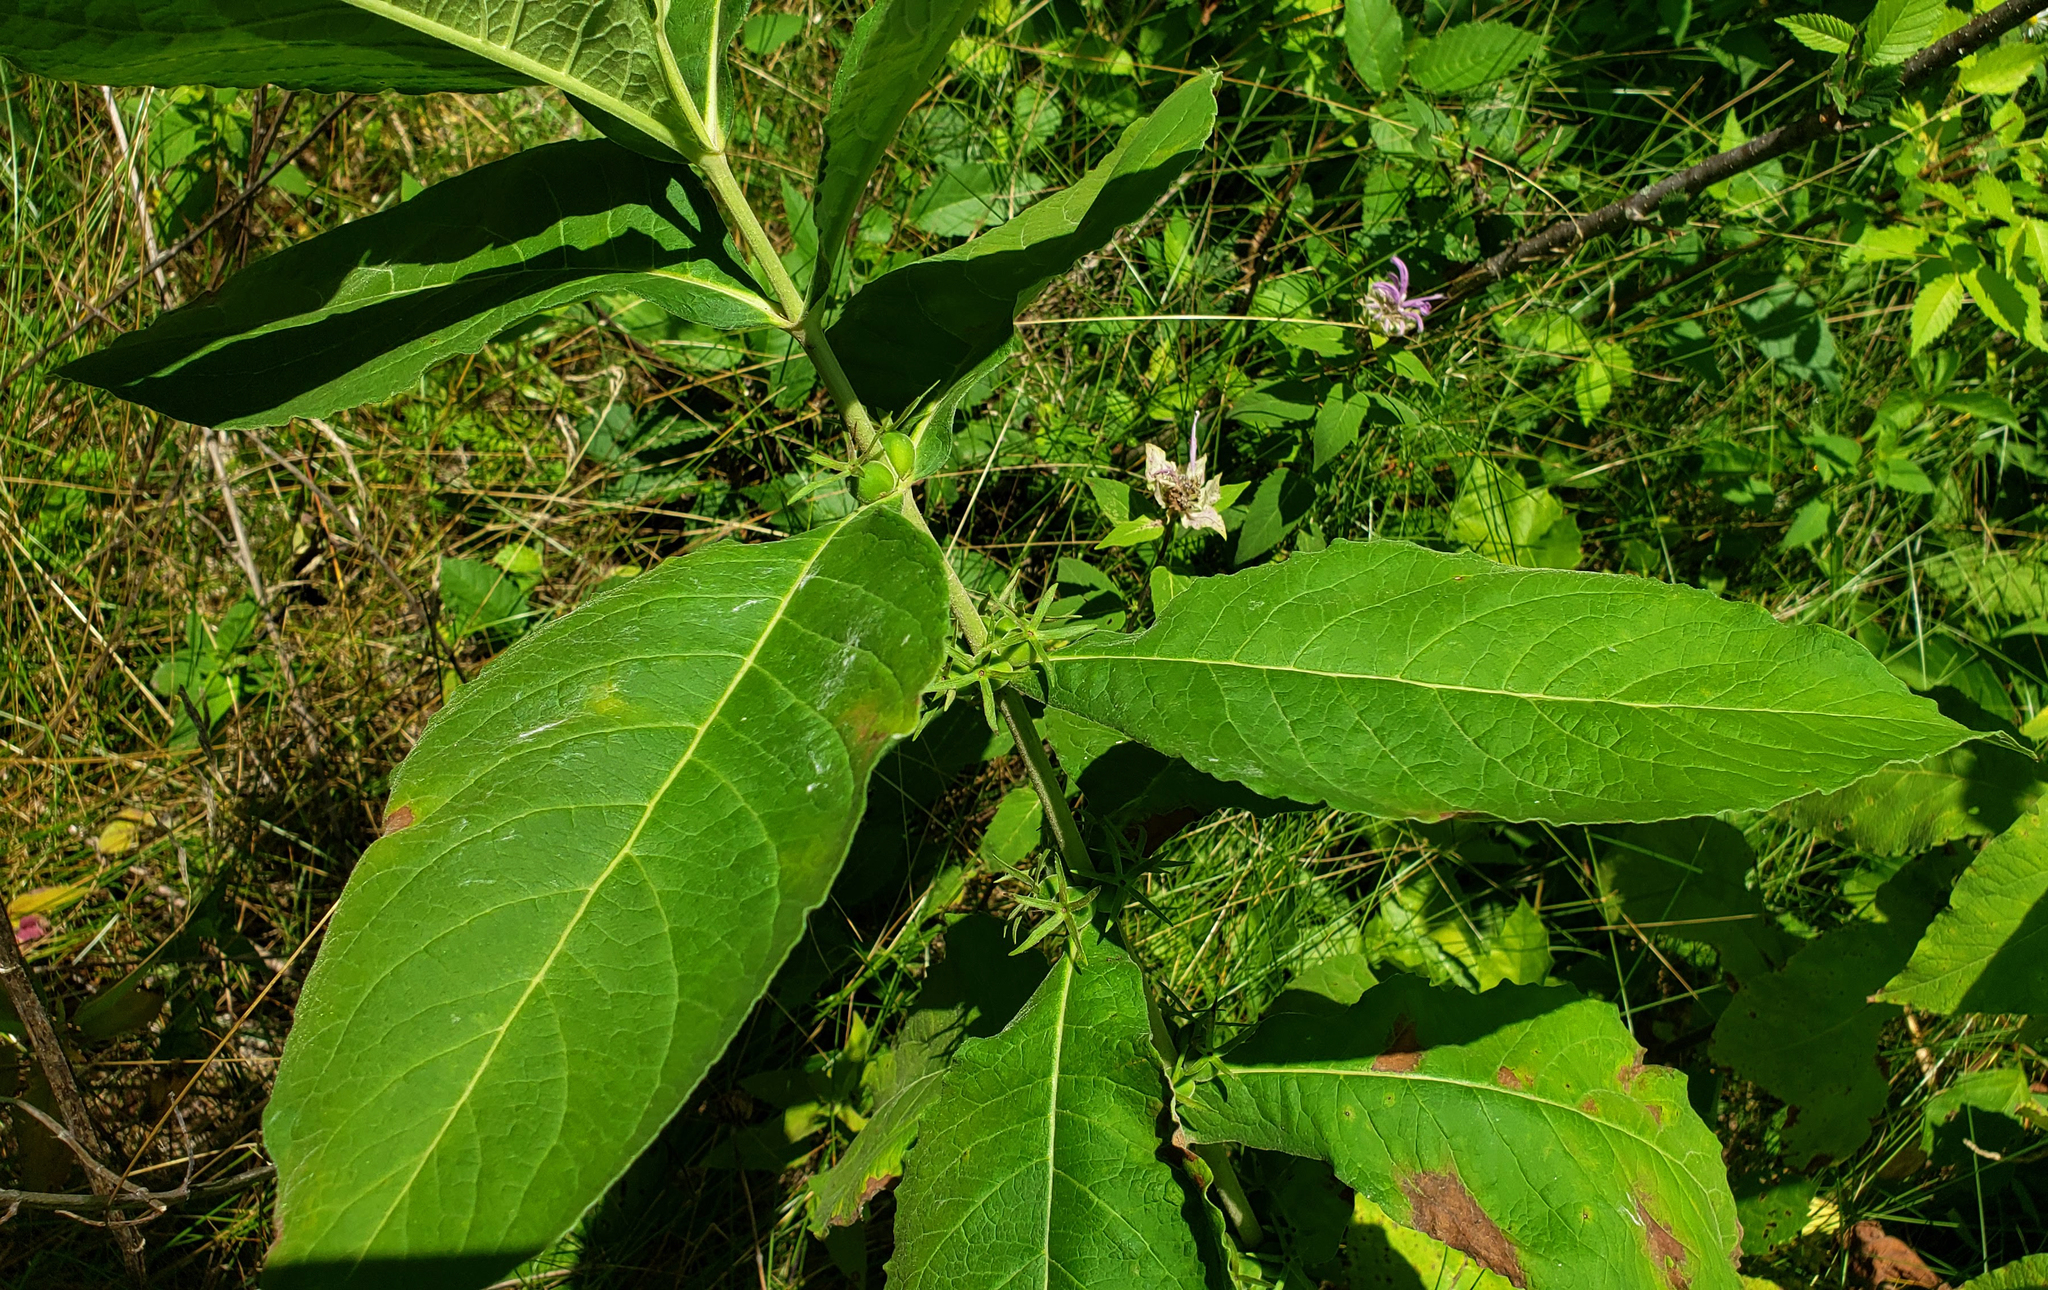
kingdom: Plantae
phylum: Tracheophyta
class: Magnoliopsida
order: Dipsacales
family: Caprifoliaceae
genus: Triosteum
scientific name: Triosteum aurantiacum
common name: Coffee tinker's-weed
